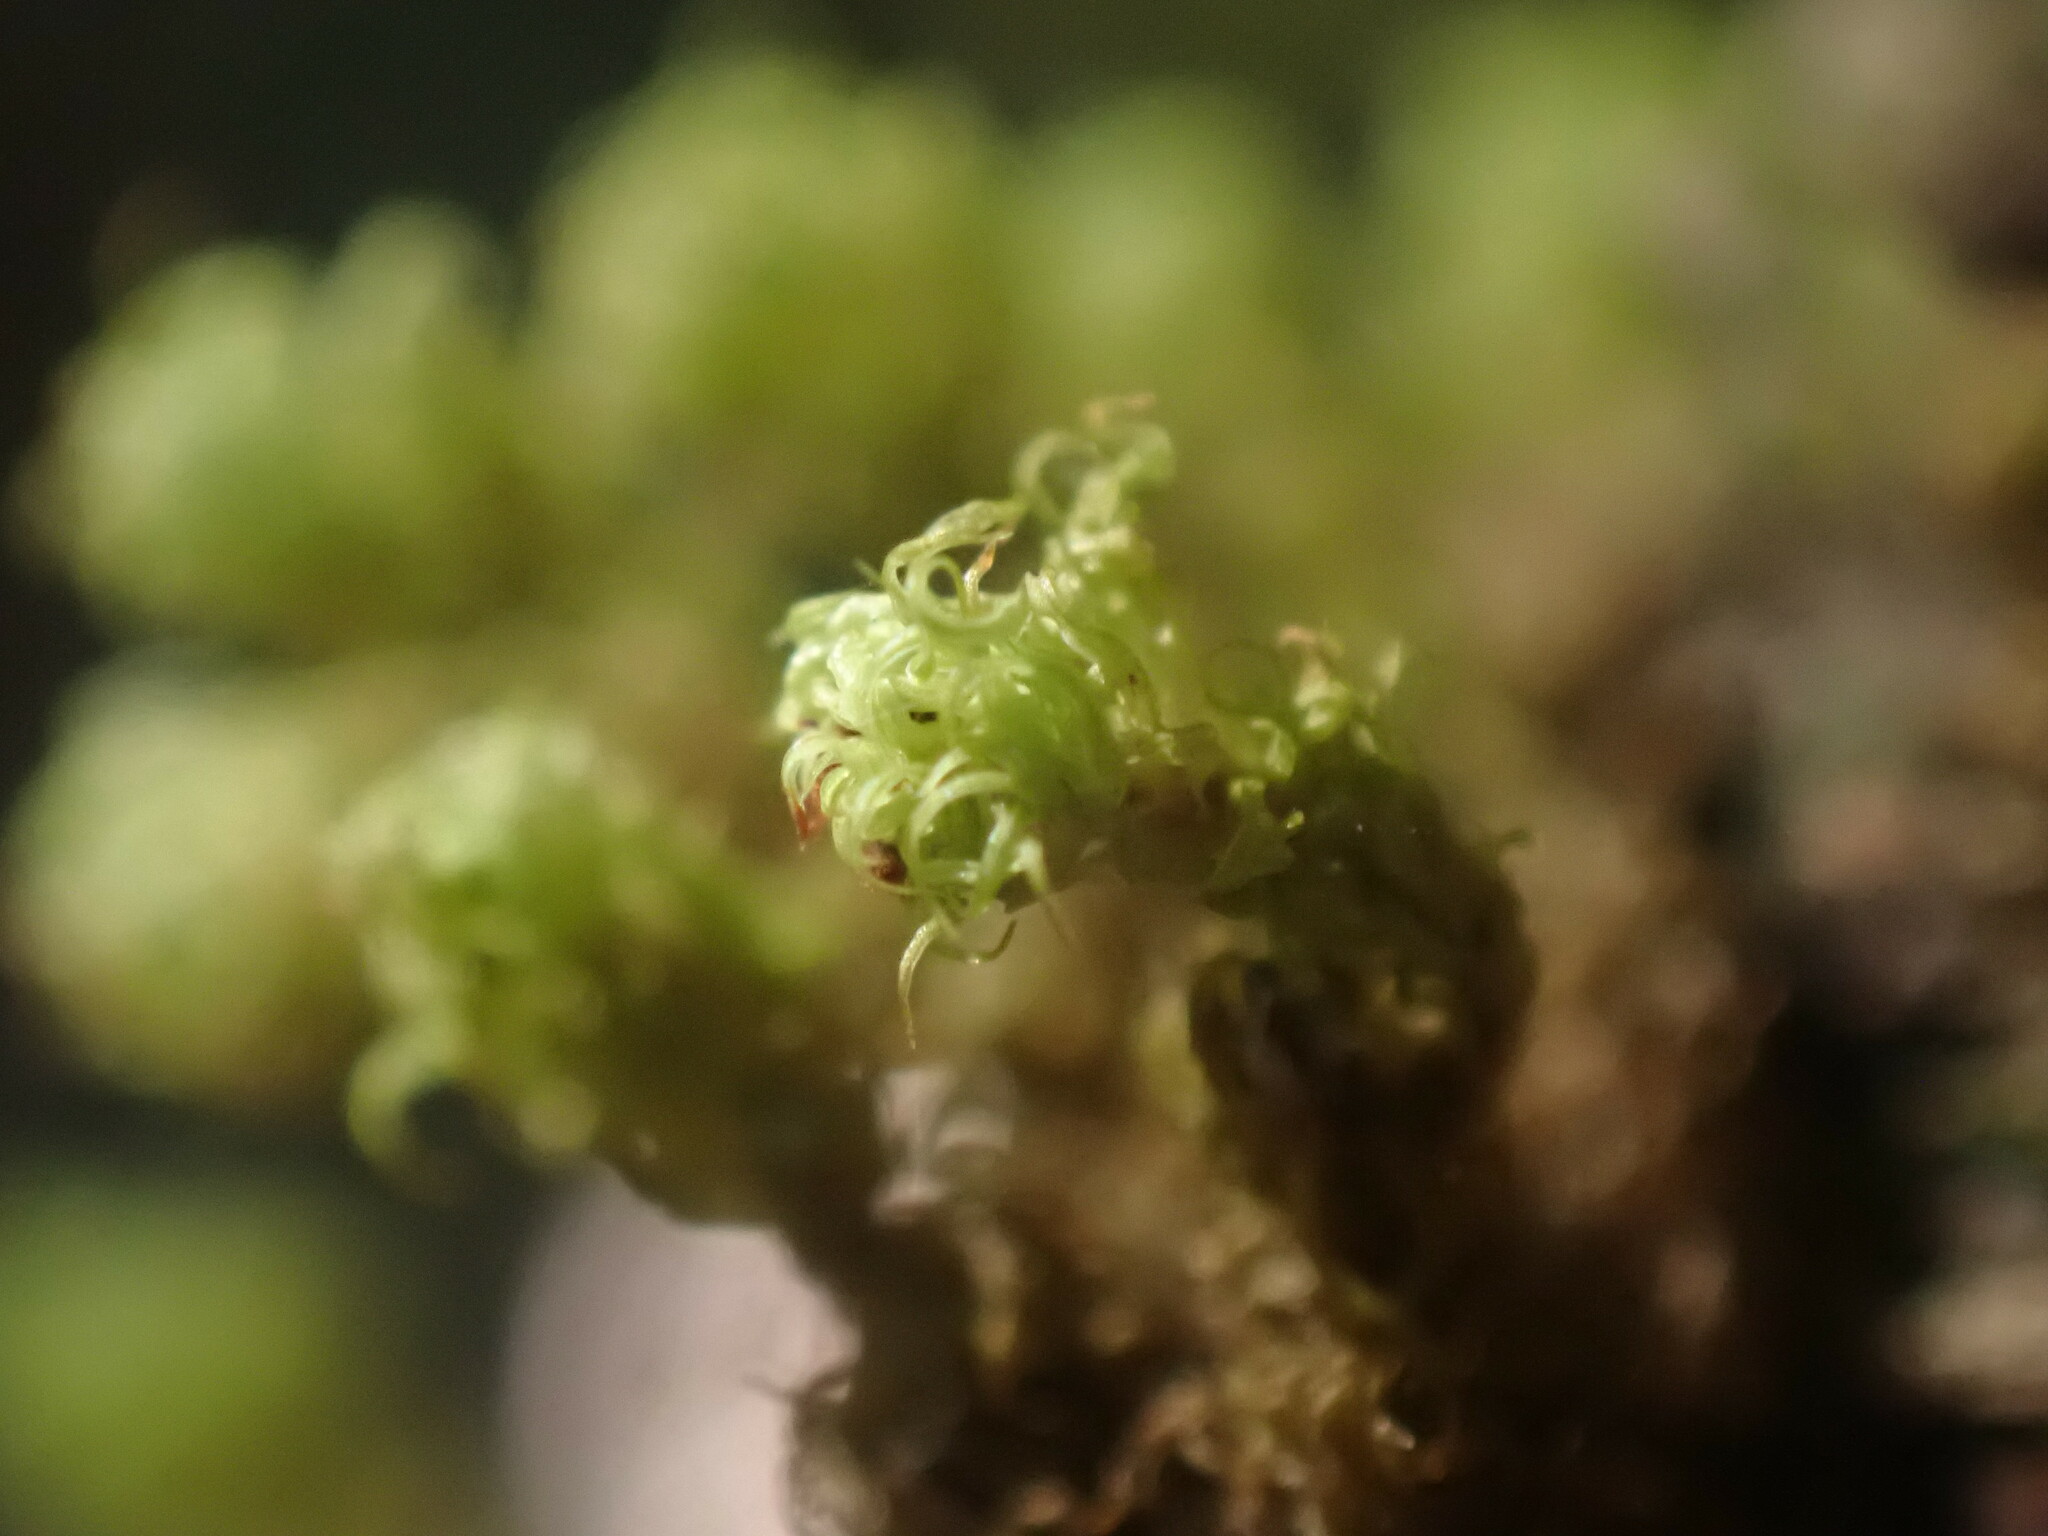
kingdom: Plantae
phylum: Bryophyta
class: Bryopsida
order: Orthotrichales
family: Orthotrichaceae
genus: Plenogemma
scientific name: Plenogemma phyllantha
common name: Frizzled pincushion
